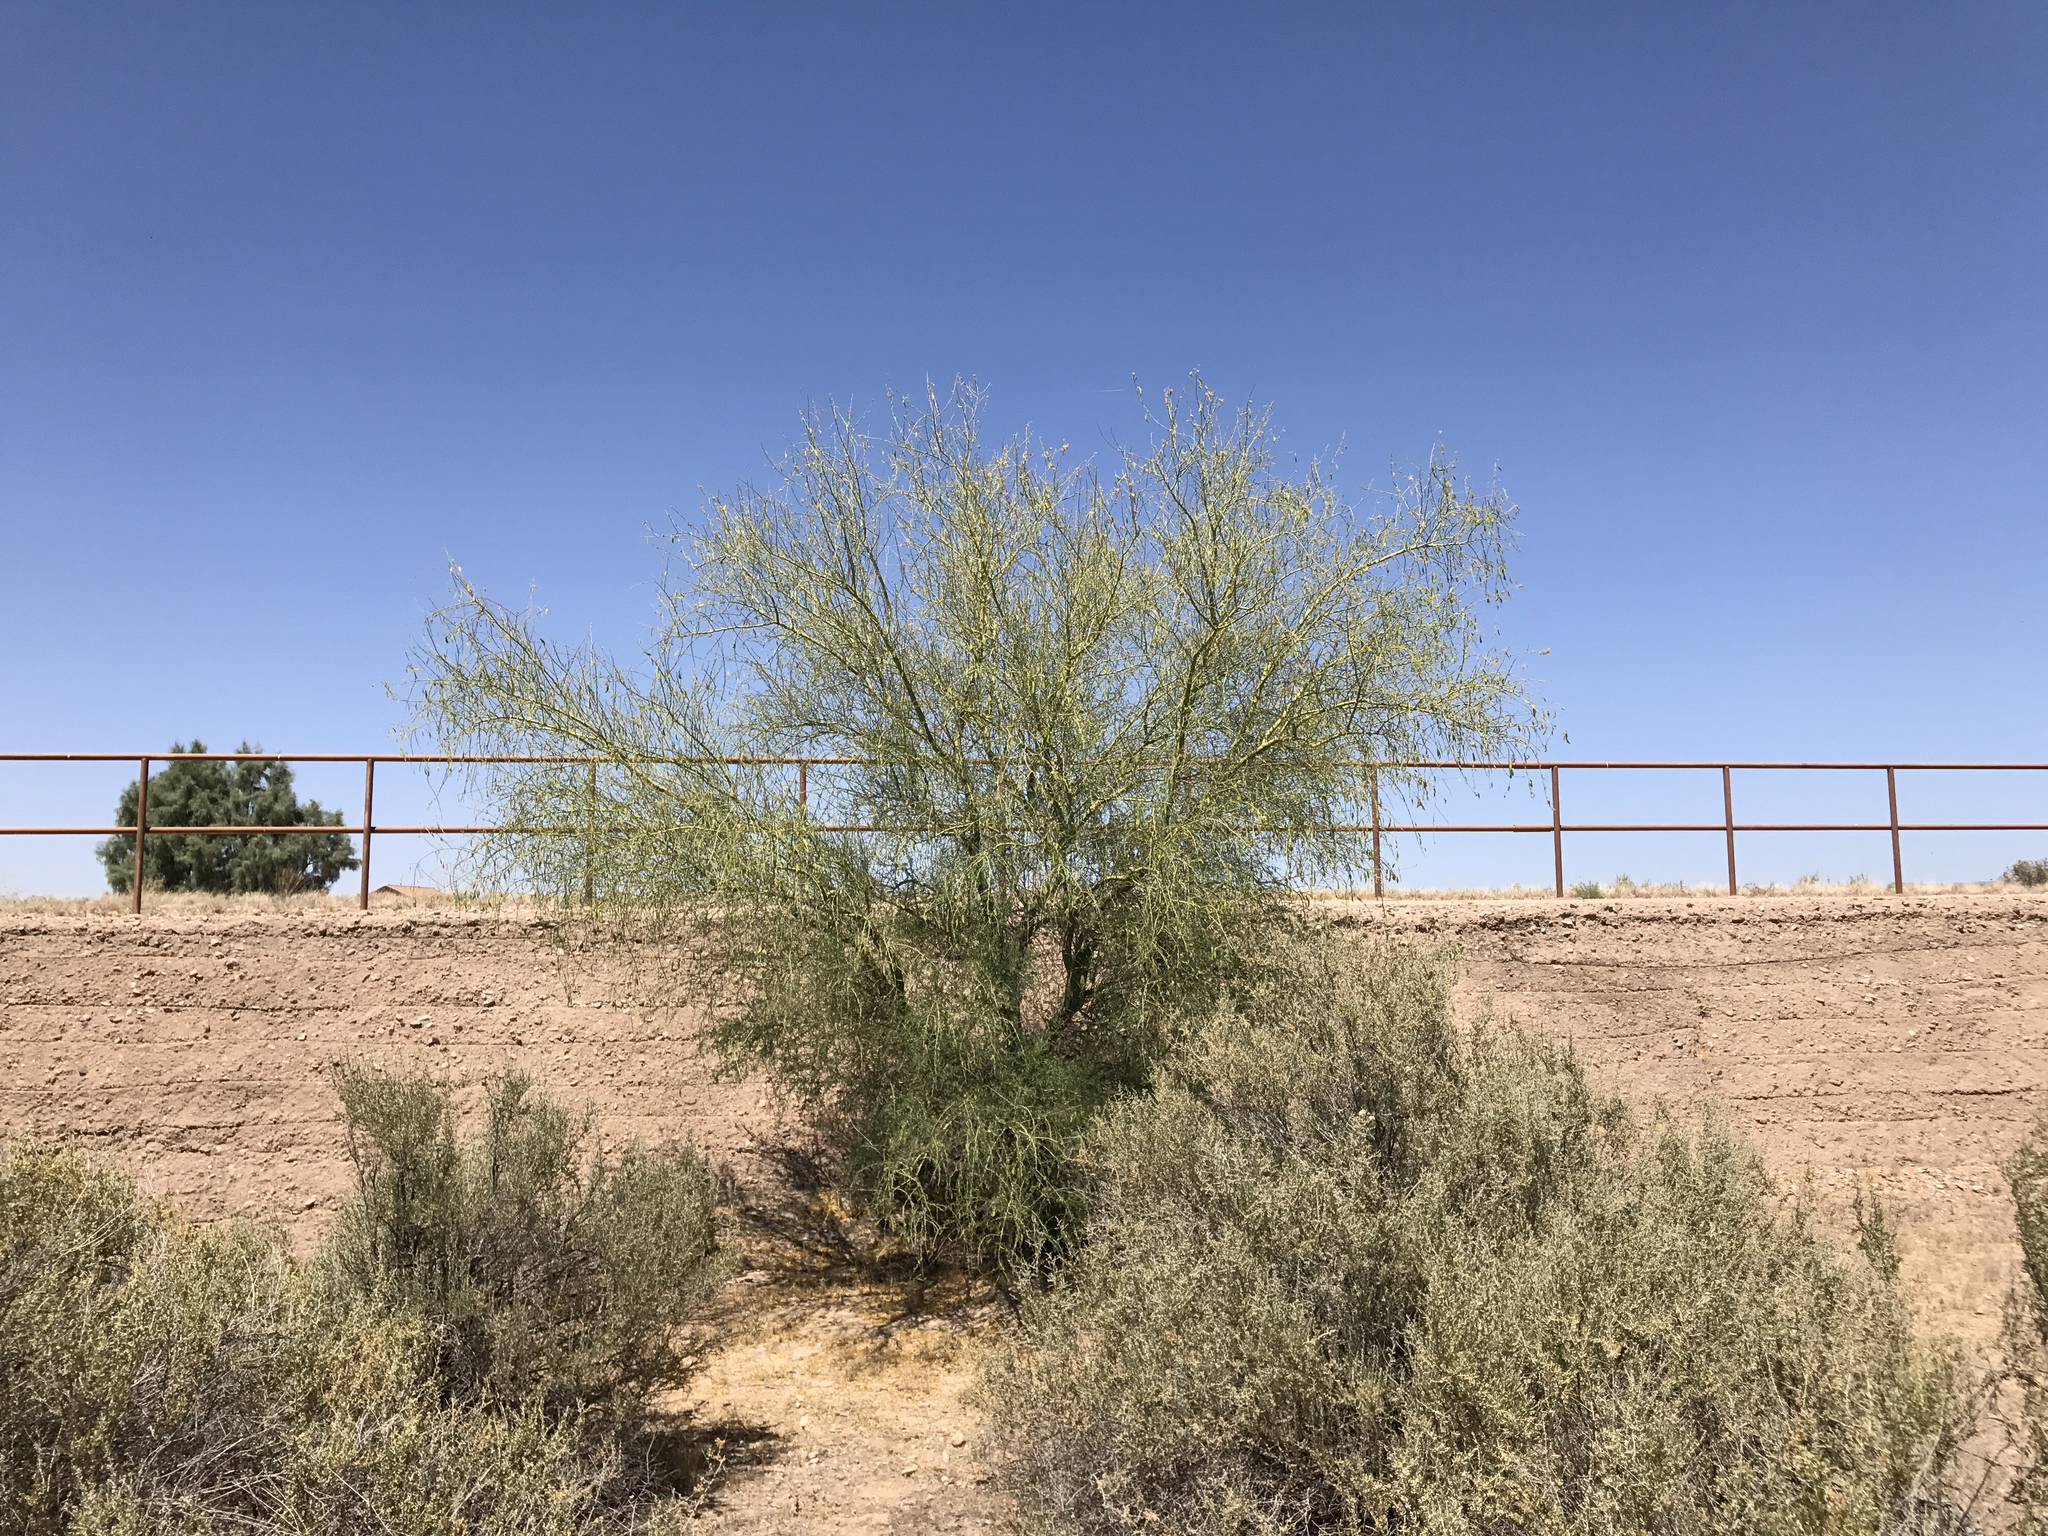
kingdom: Plantae
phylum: Tracheophyta
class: Magnoliopsida
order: Fabales
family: Fabaceae
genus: Parkinsonia
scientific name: Parkinsonia microphylla
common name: Yellow paloverde
